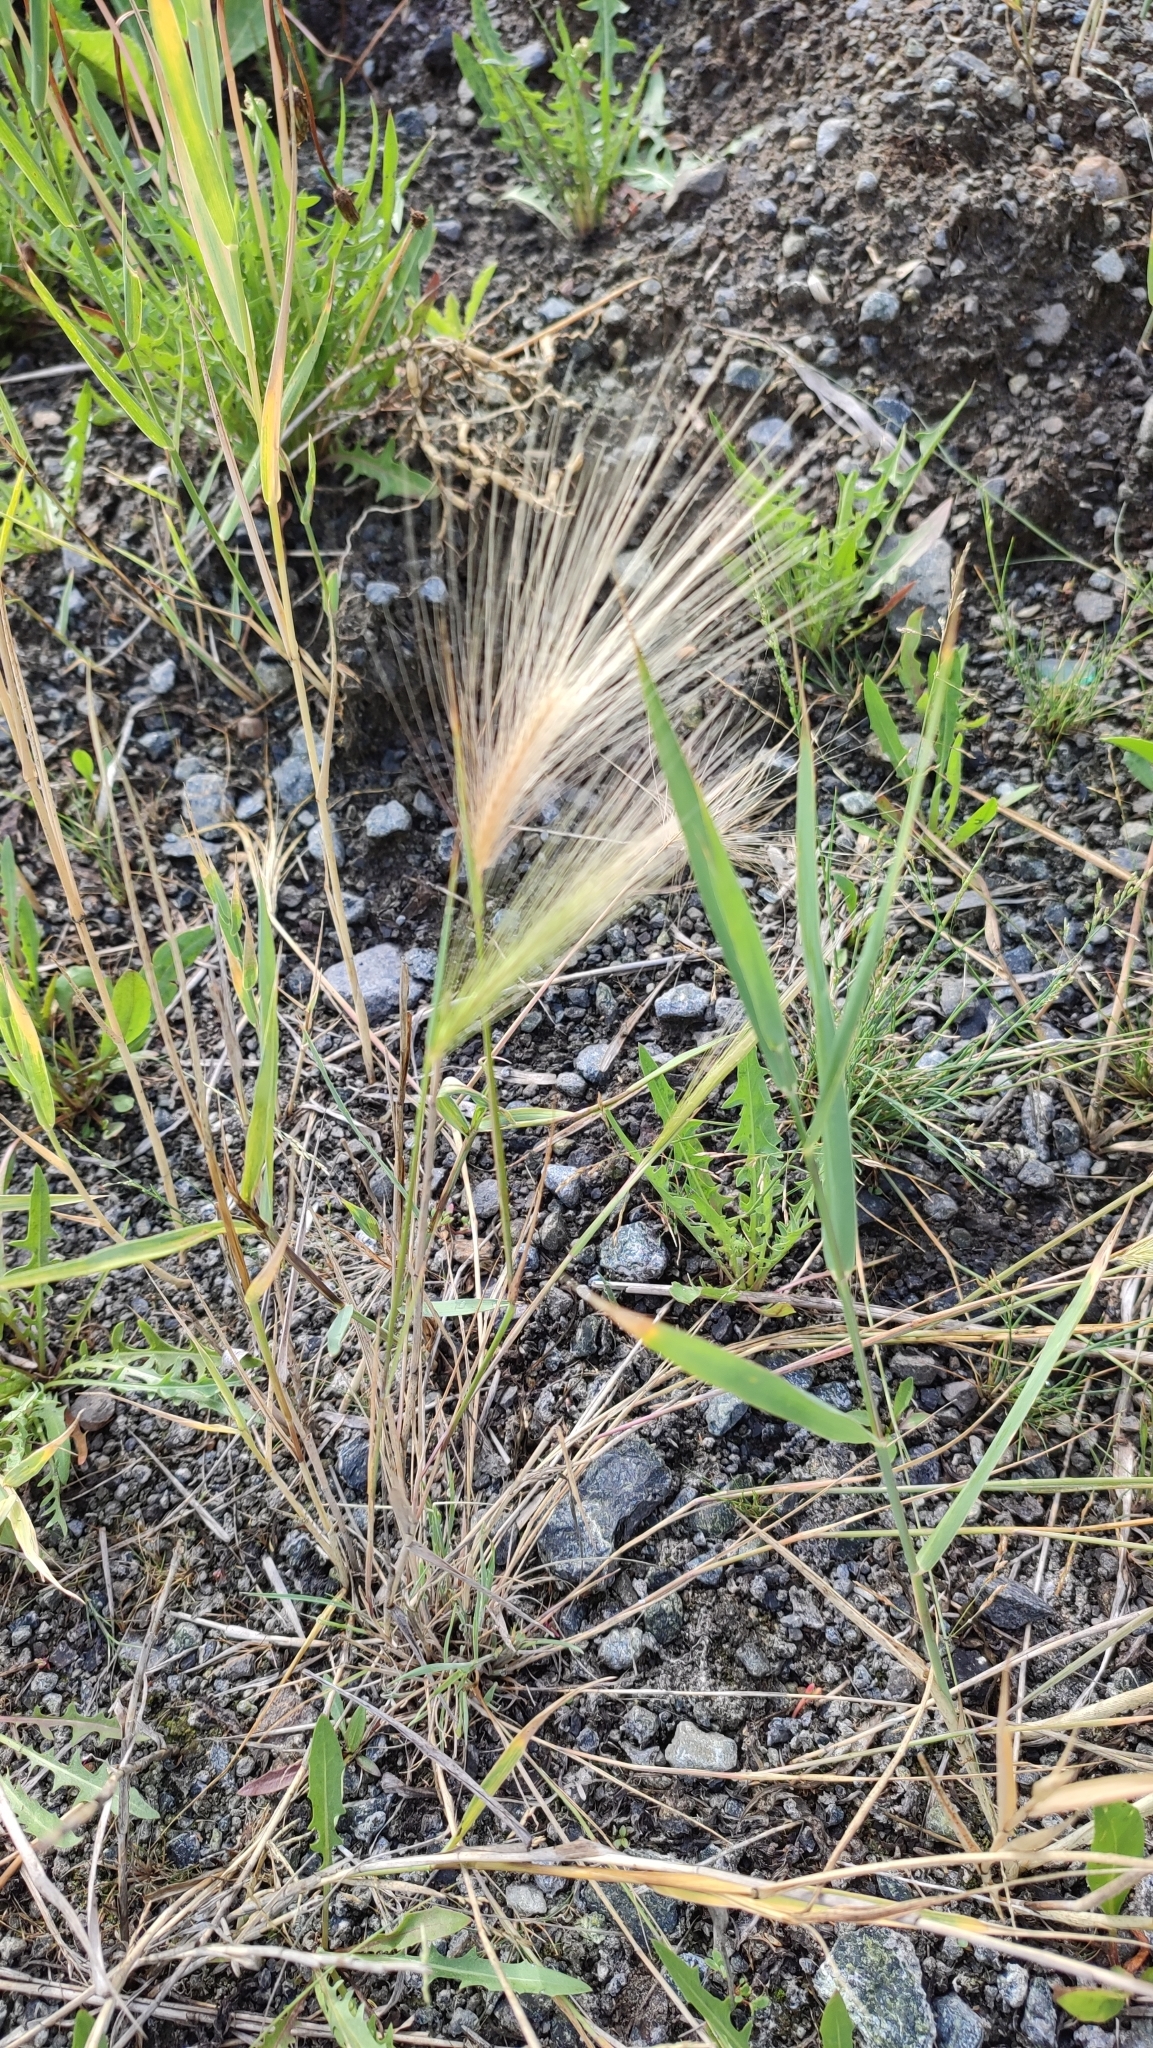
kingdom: Plantae
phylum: Tracheophyta
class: Liliopsida
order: Poales
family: Poaceae
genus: Hordeum
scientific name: Hordeum jubatum
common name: Foxtail barley
